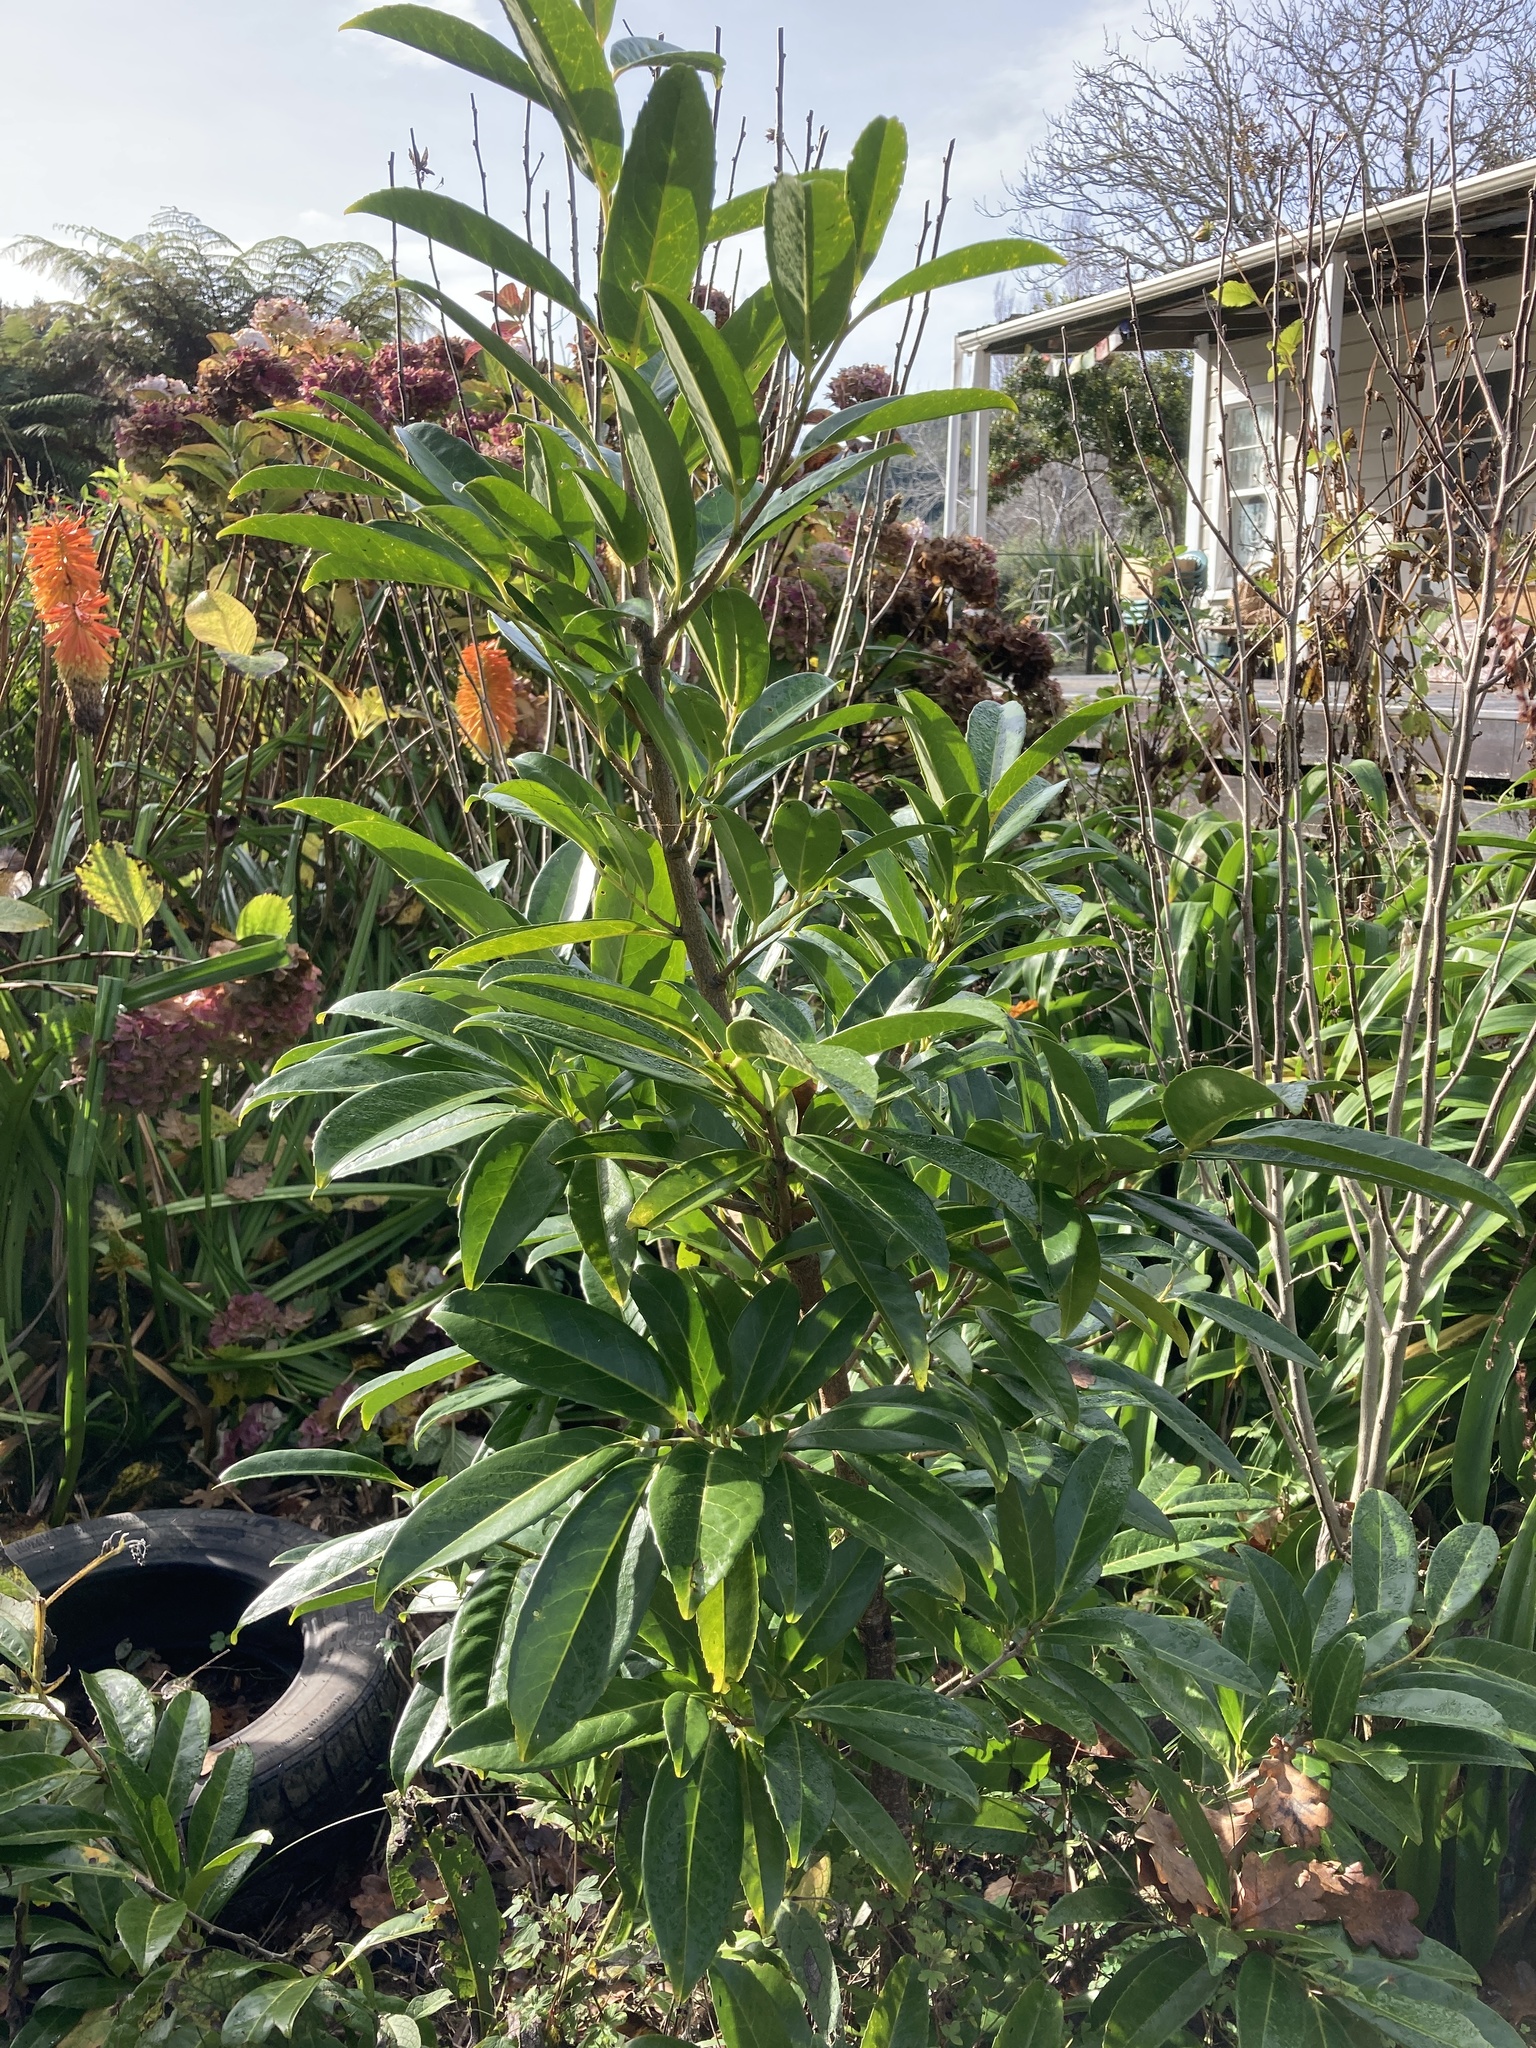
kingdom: Plantae
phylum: Tracheophyta
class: Magnoliopsida
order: Rosales
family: Rosaceae
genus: Prunus
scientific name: Prunus laurocerasus
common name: Cherry laurel
